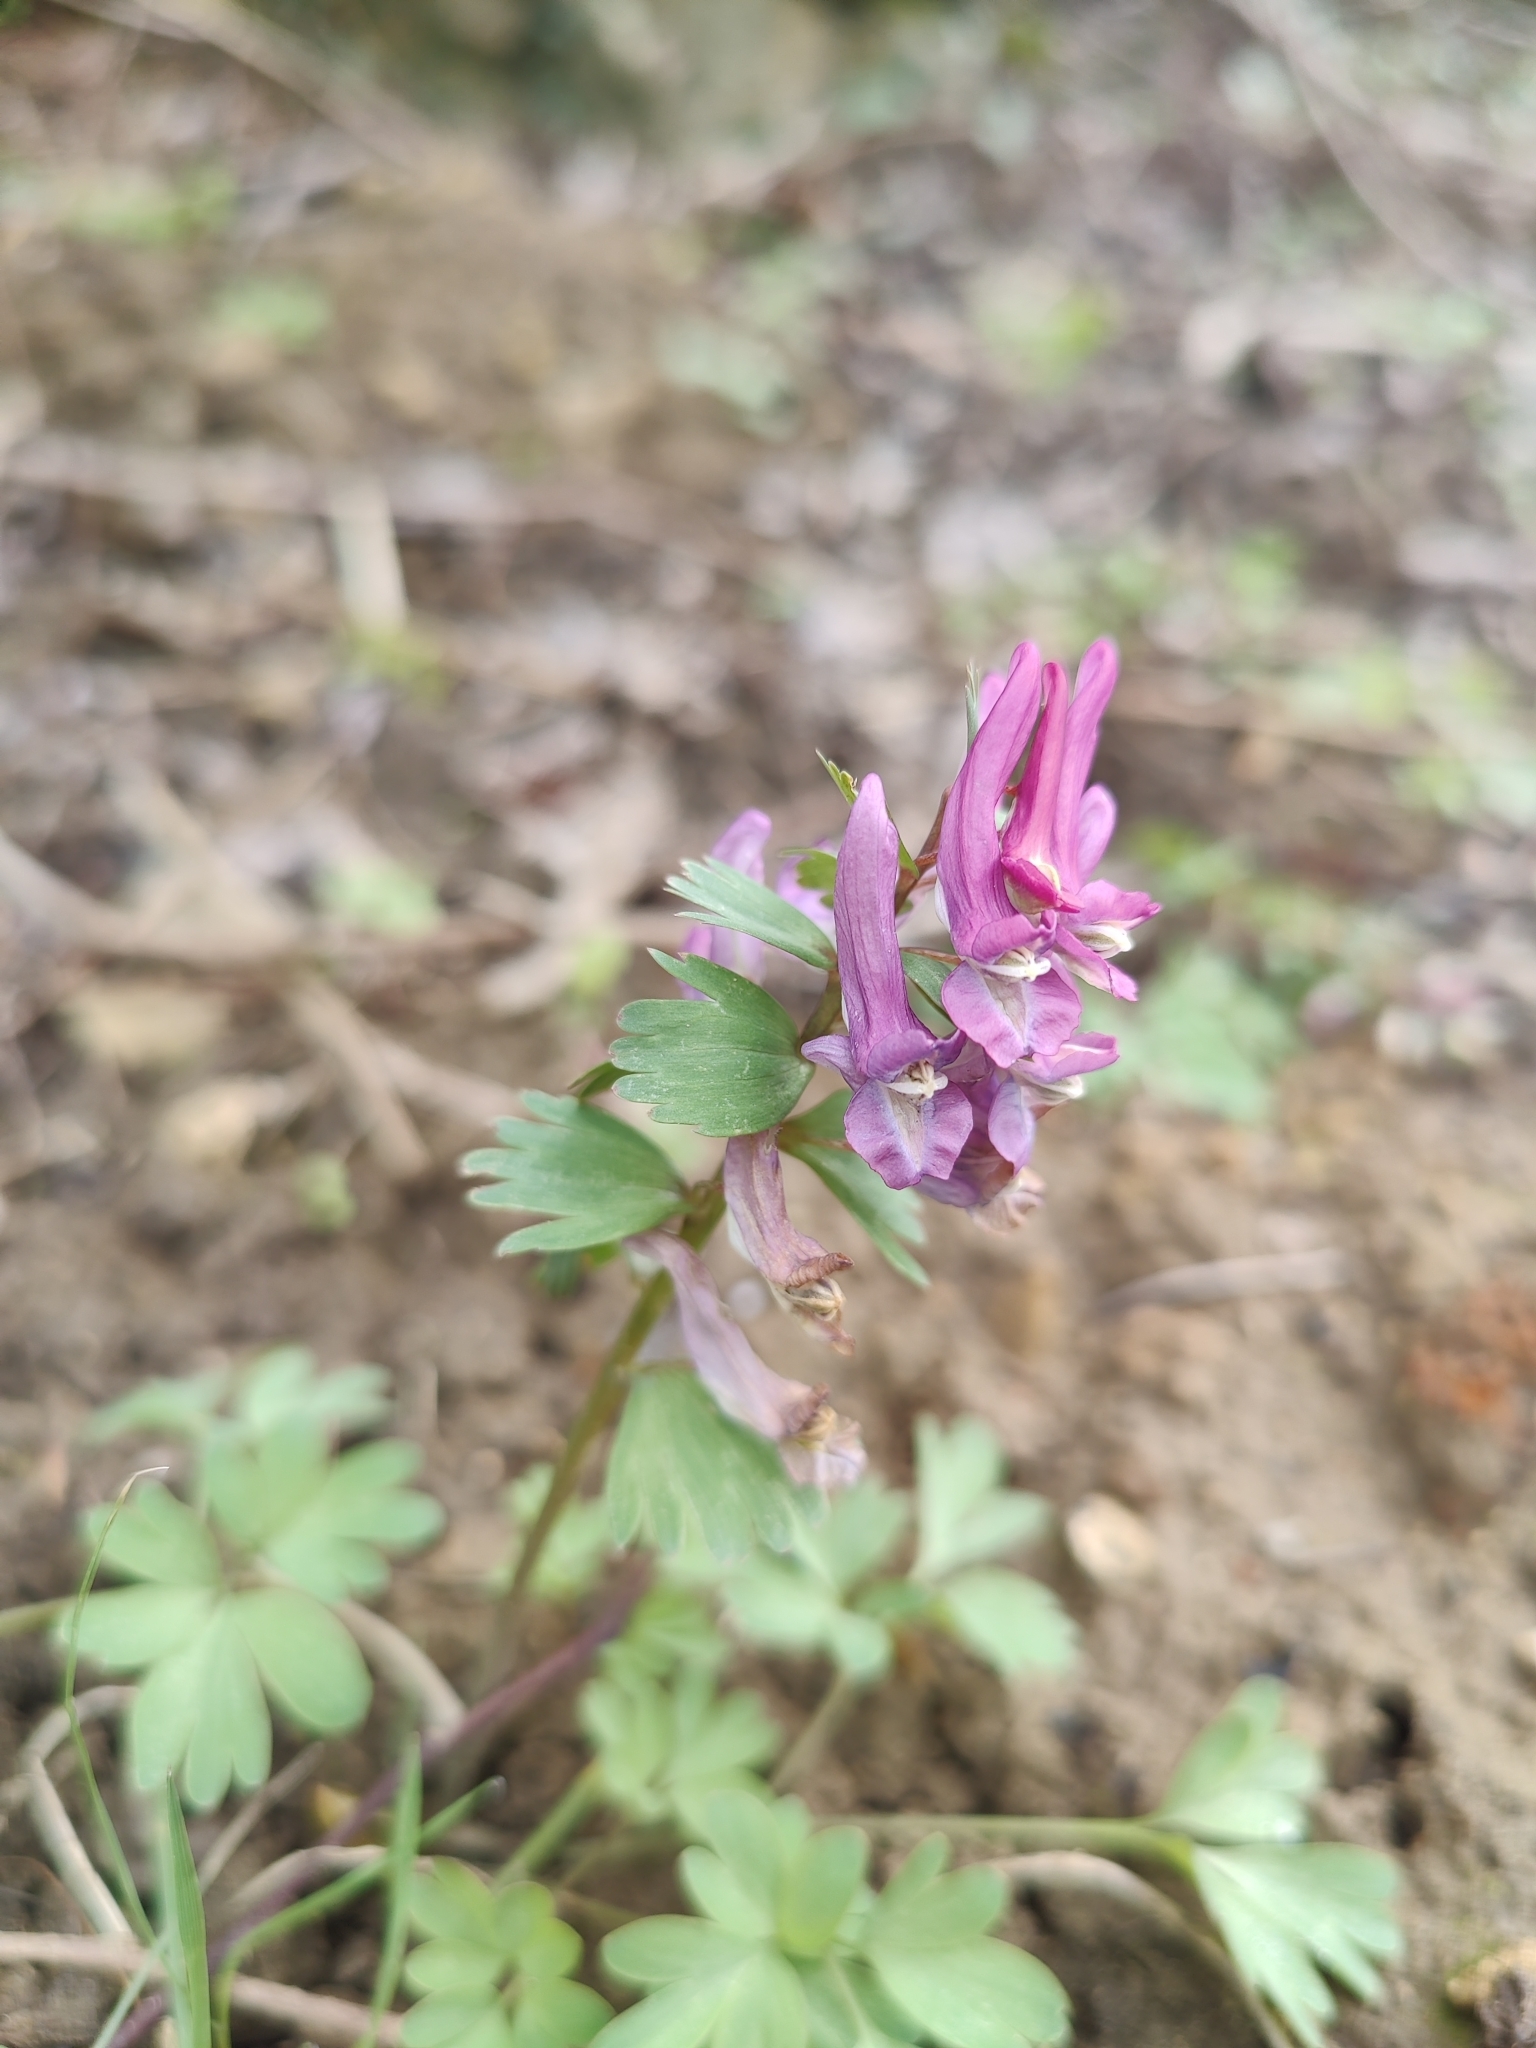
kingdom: Plantae
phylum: Tracheophyta
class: Magnoliopsida
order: Ranunculales
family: Papaveraceae
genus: Corydalis
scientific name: Corydalis solida
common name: Bird-in-a-bush
